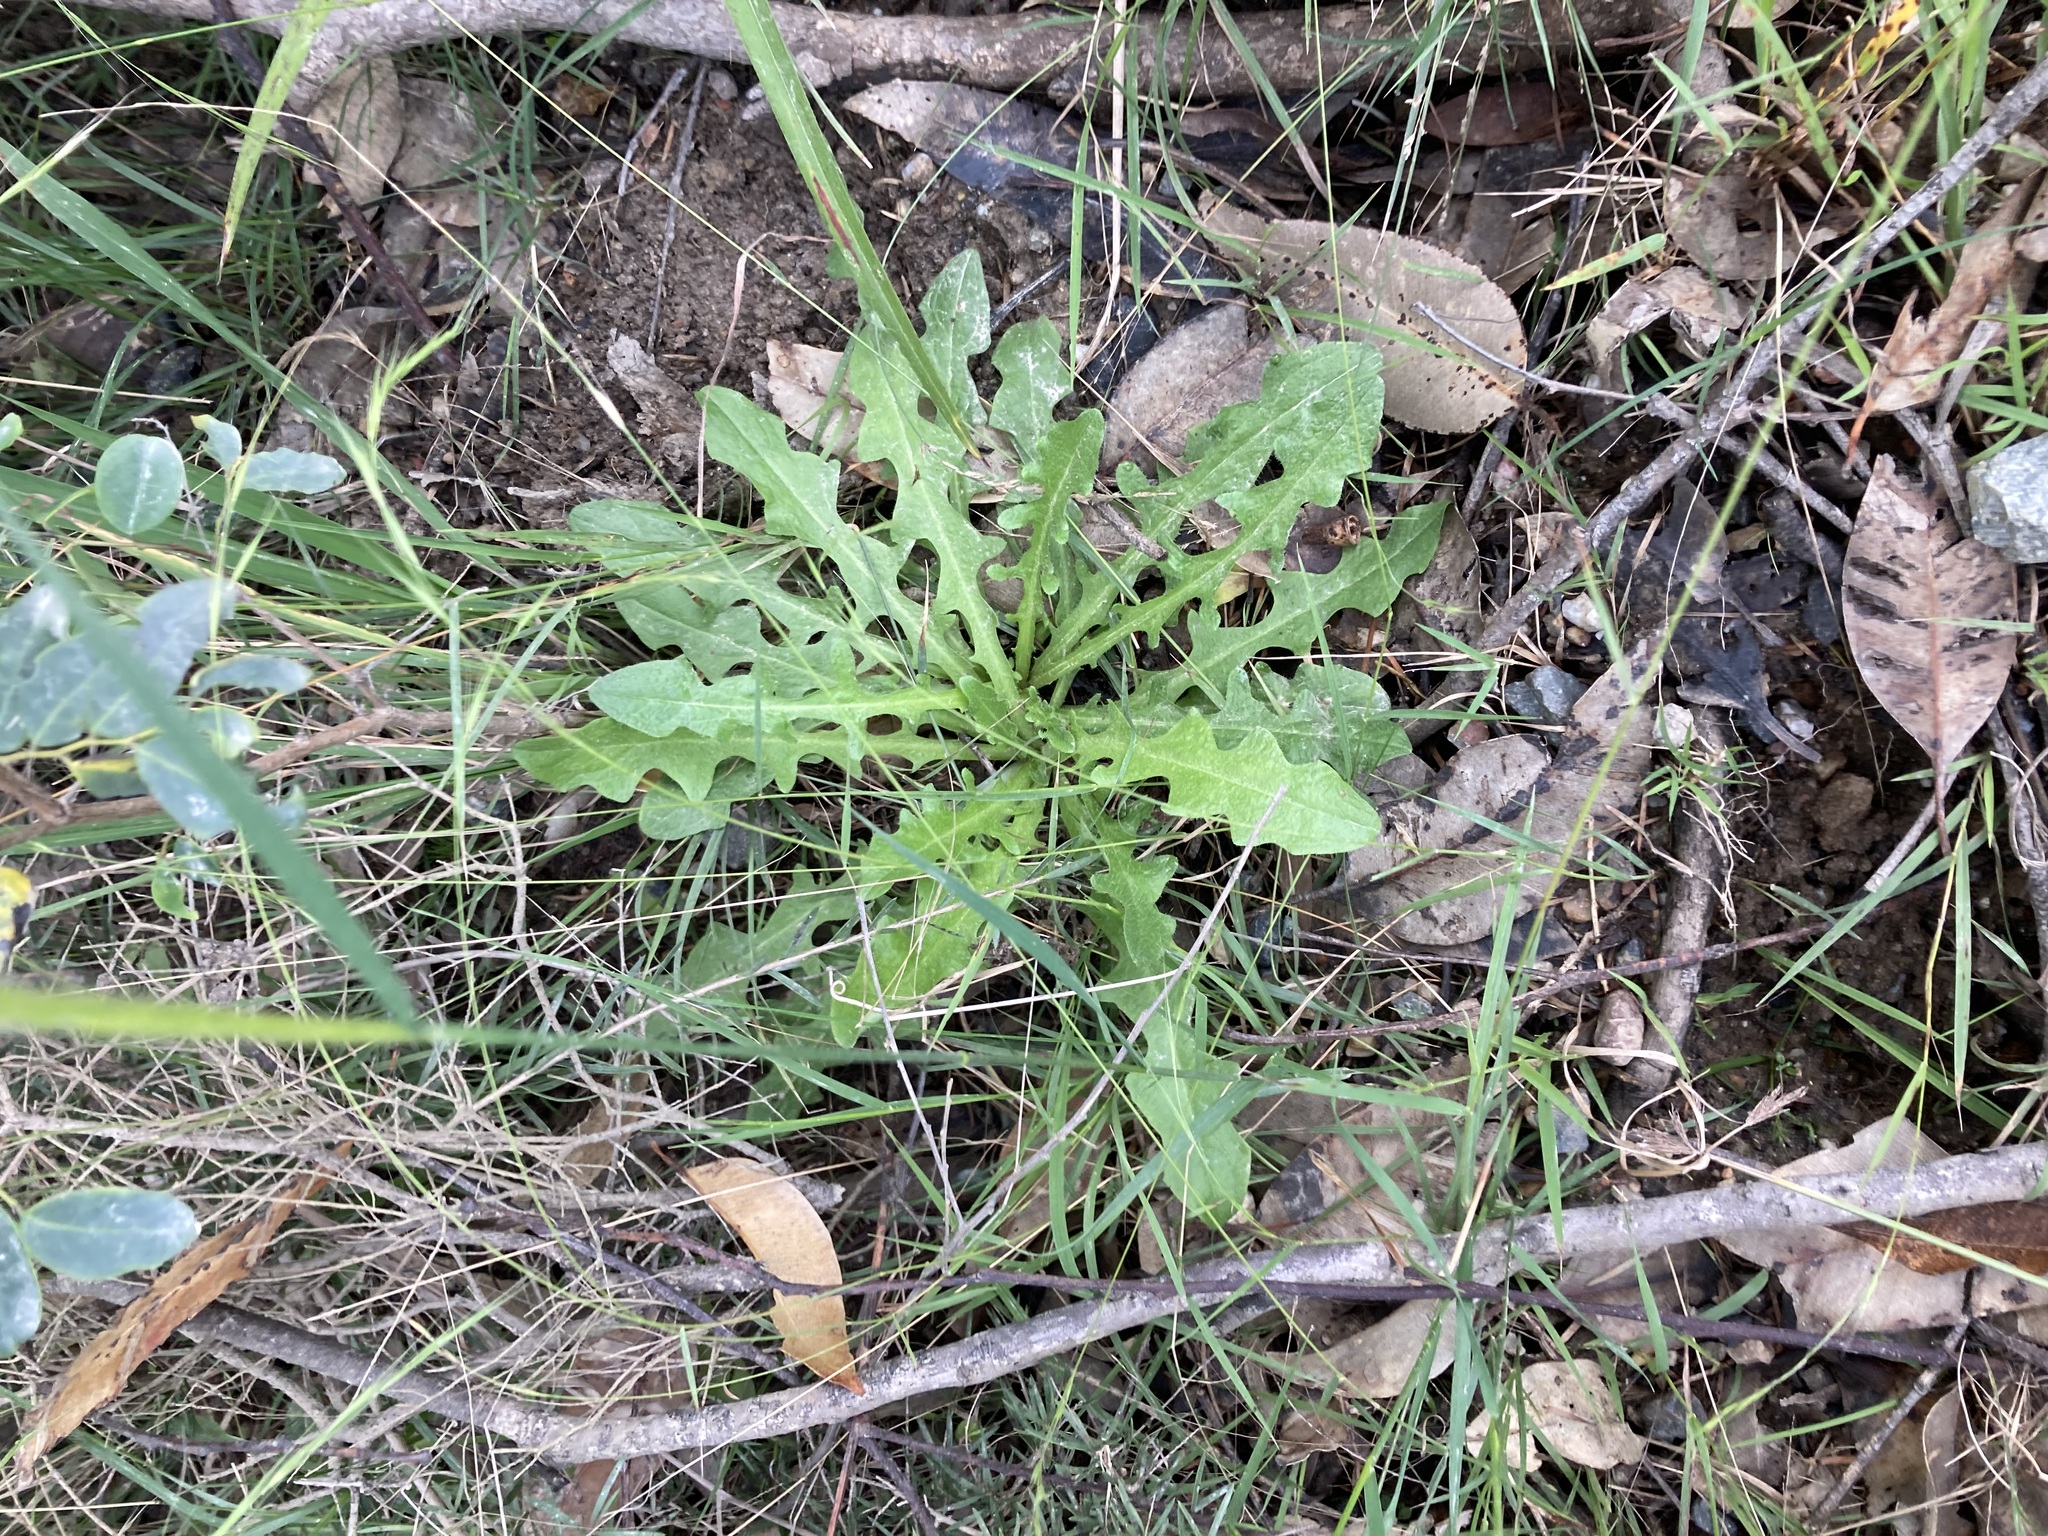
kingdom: Plantae
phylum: Tracheophyta
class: Magnoliopsida
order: Asterales
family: Asteraceae
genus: Hypochaeris
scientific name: Hypochaeris radicata
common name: Flatweed
